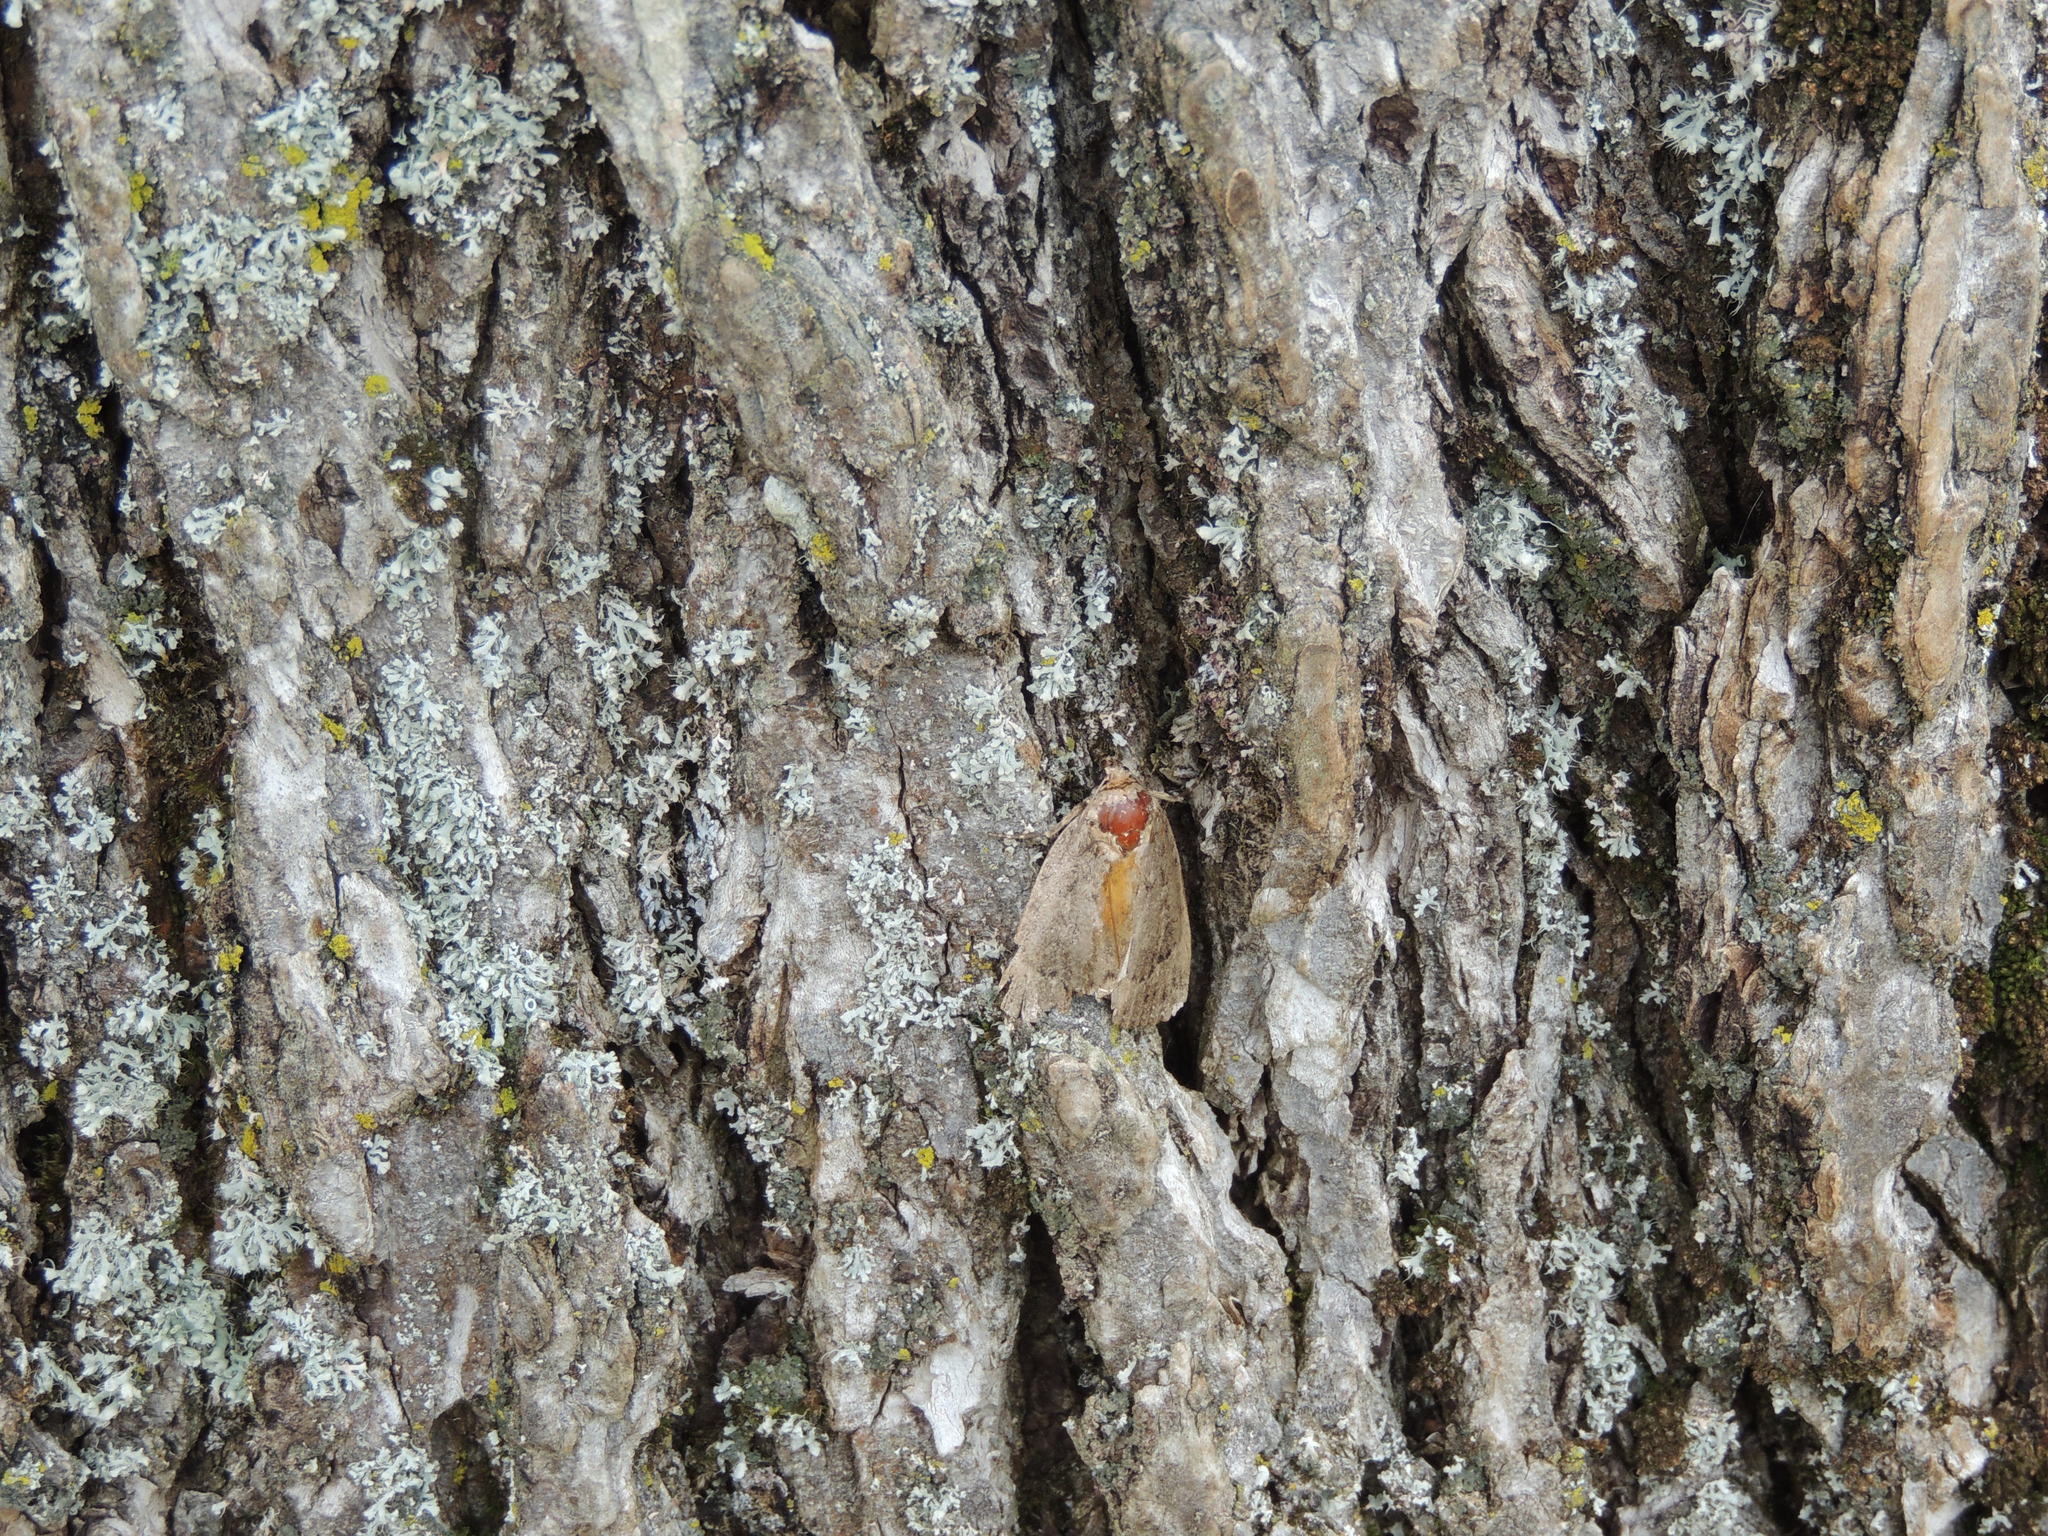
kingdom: Animalia
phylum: Arthropoda
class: Insecta
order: Lepidoptera
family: Noctuidae
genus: Amphipyra
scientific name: Amphipyra pyramidoides
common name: American copper underwing
